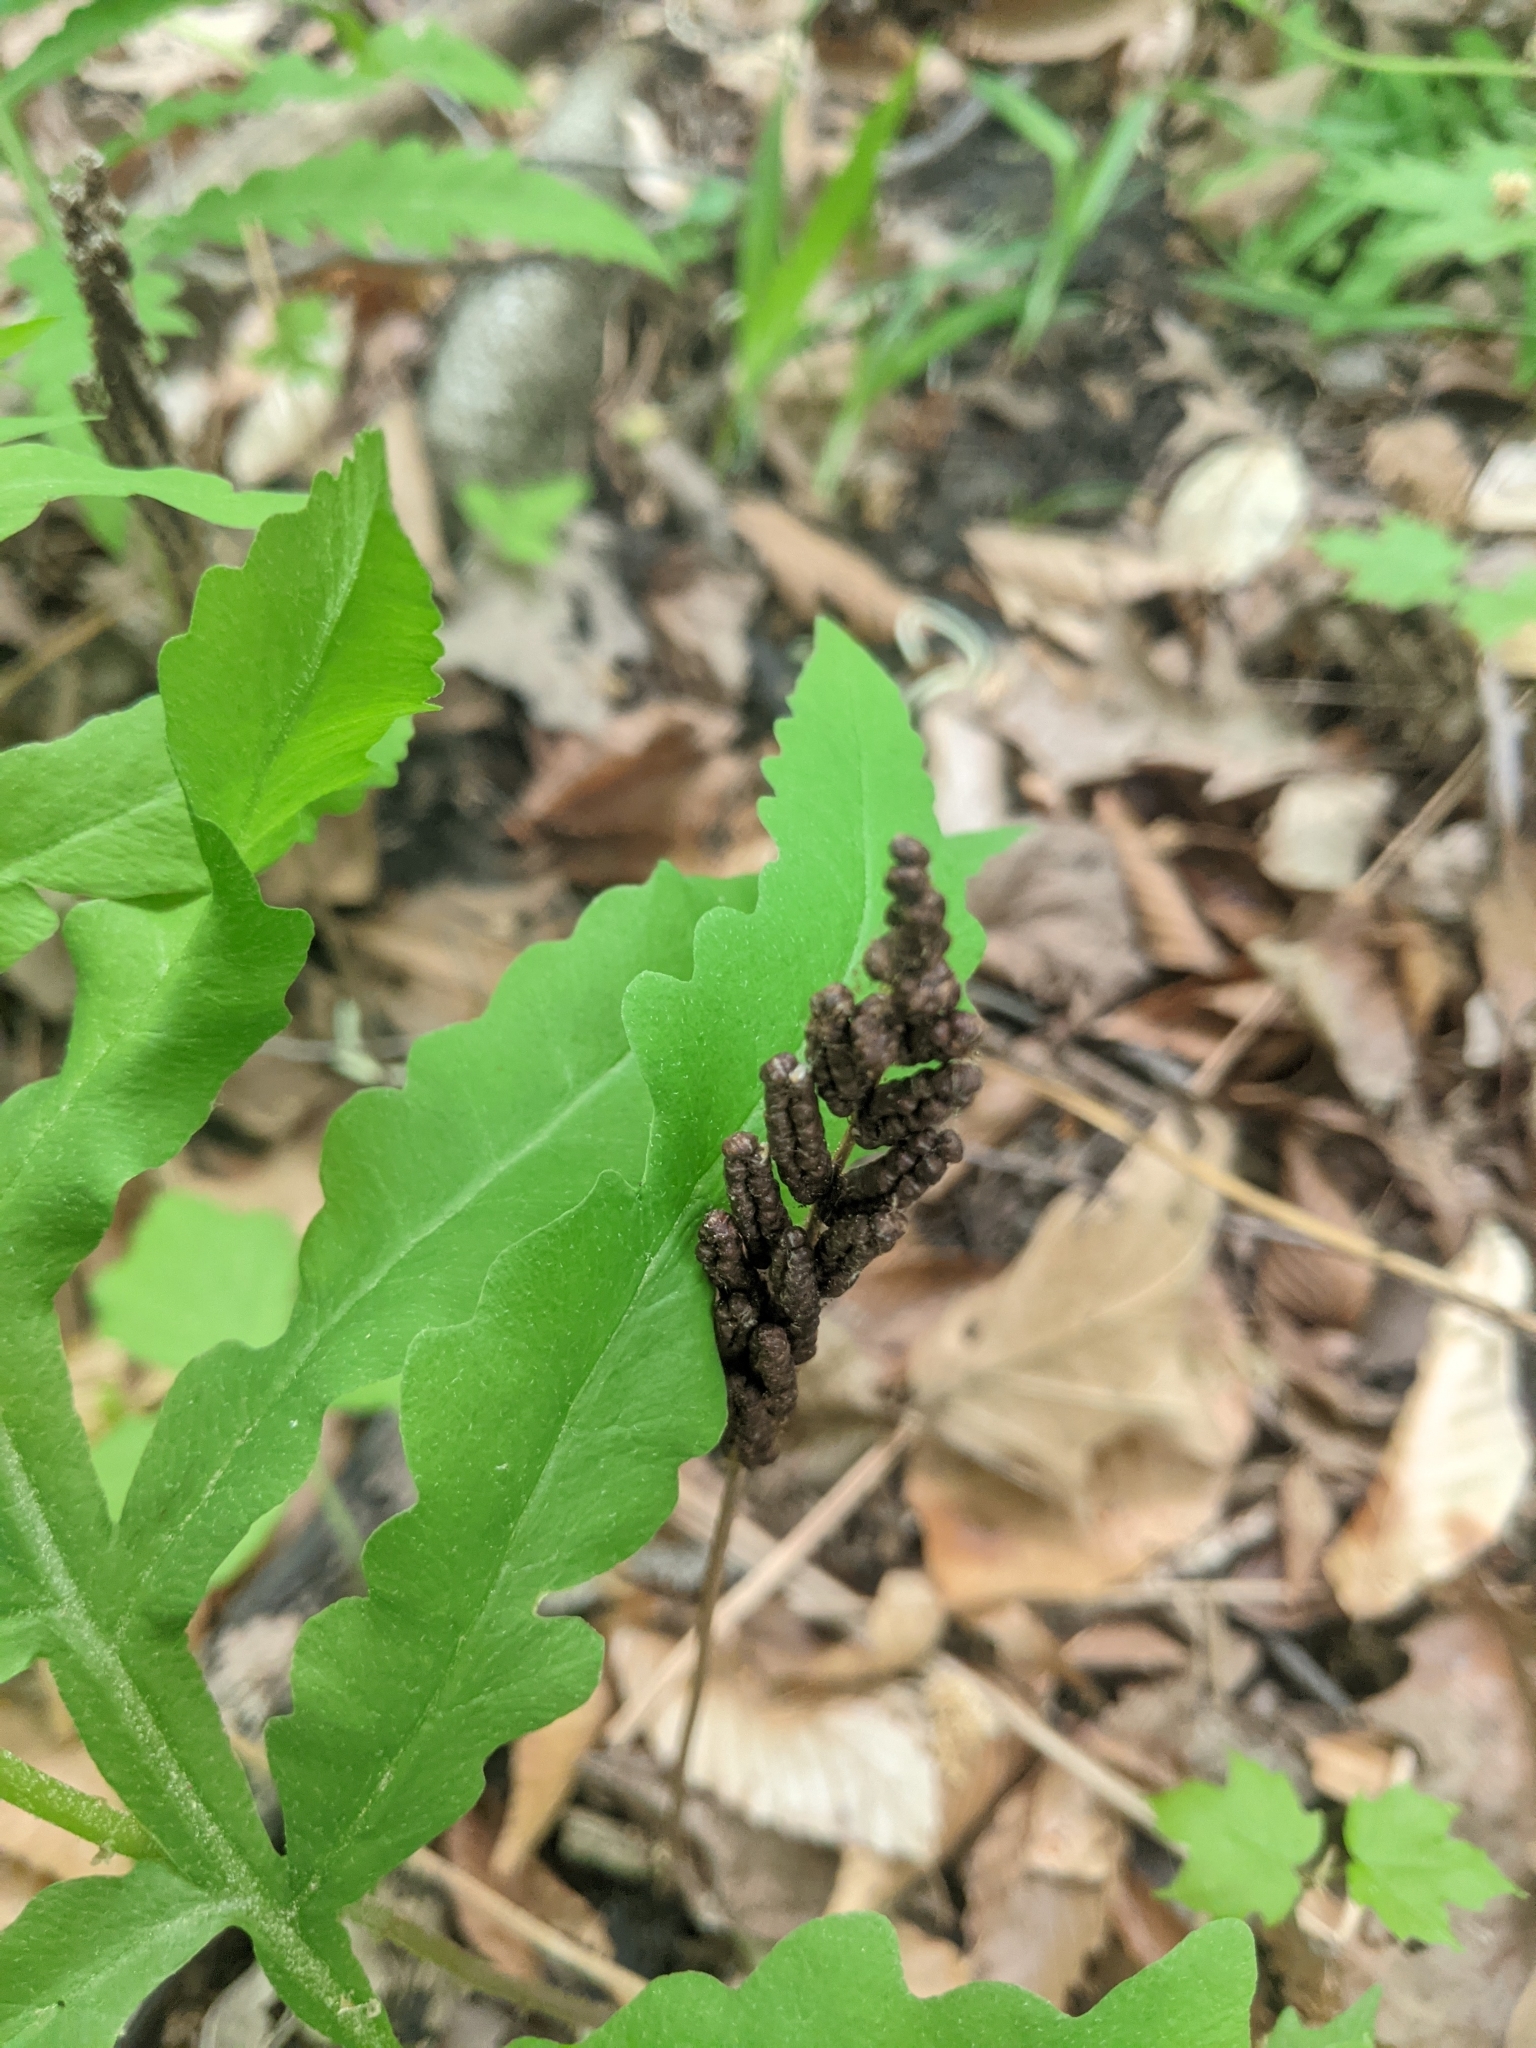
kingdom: Plantae
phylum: Tracheophyta
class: Polypodiopsida
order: Polypodiales
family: Onocleaceae
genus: Onoclea
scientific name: Onoclea sensibilis
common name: Sensitive fern
